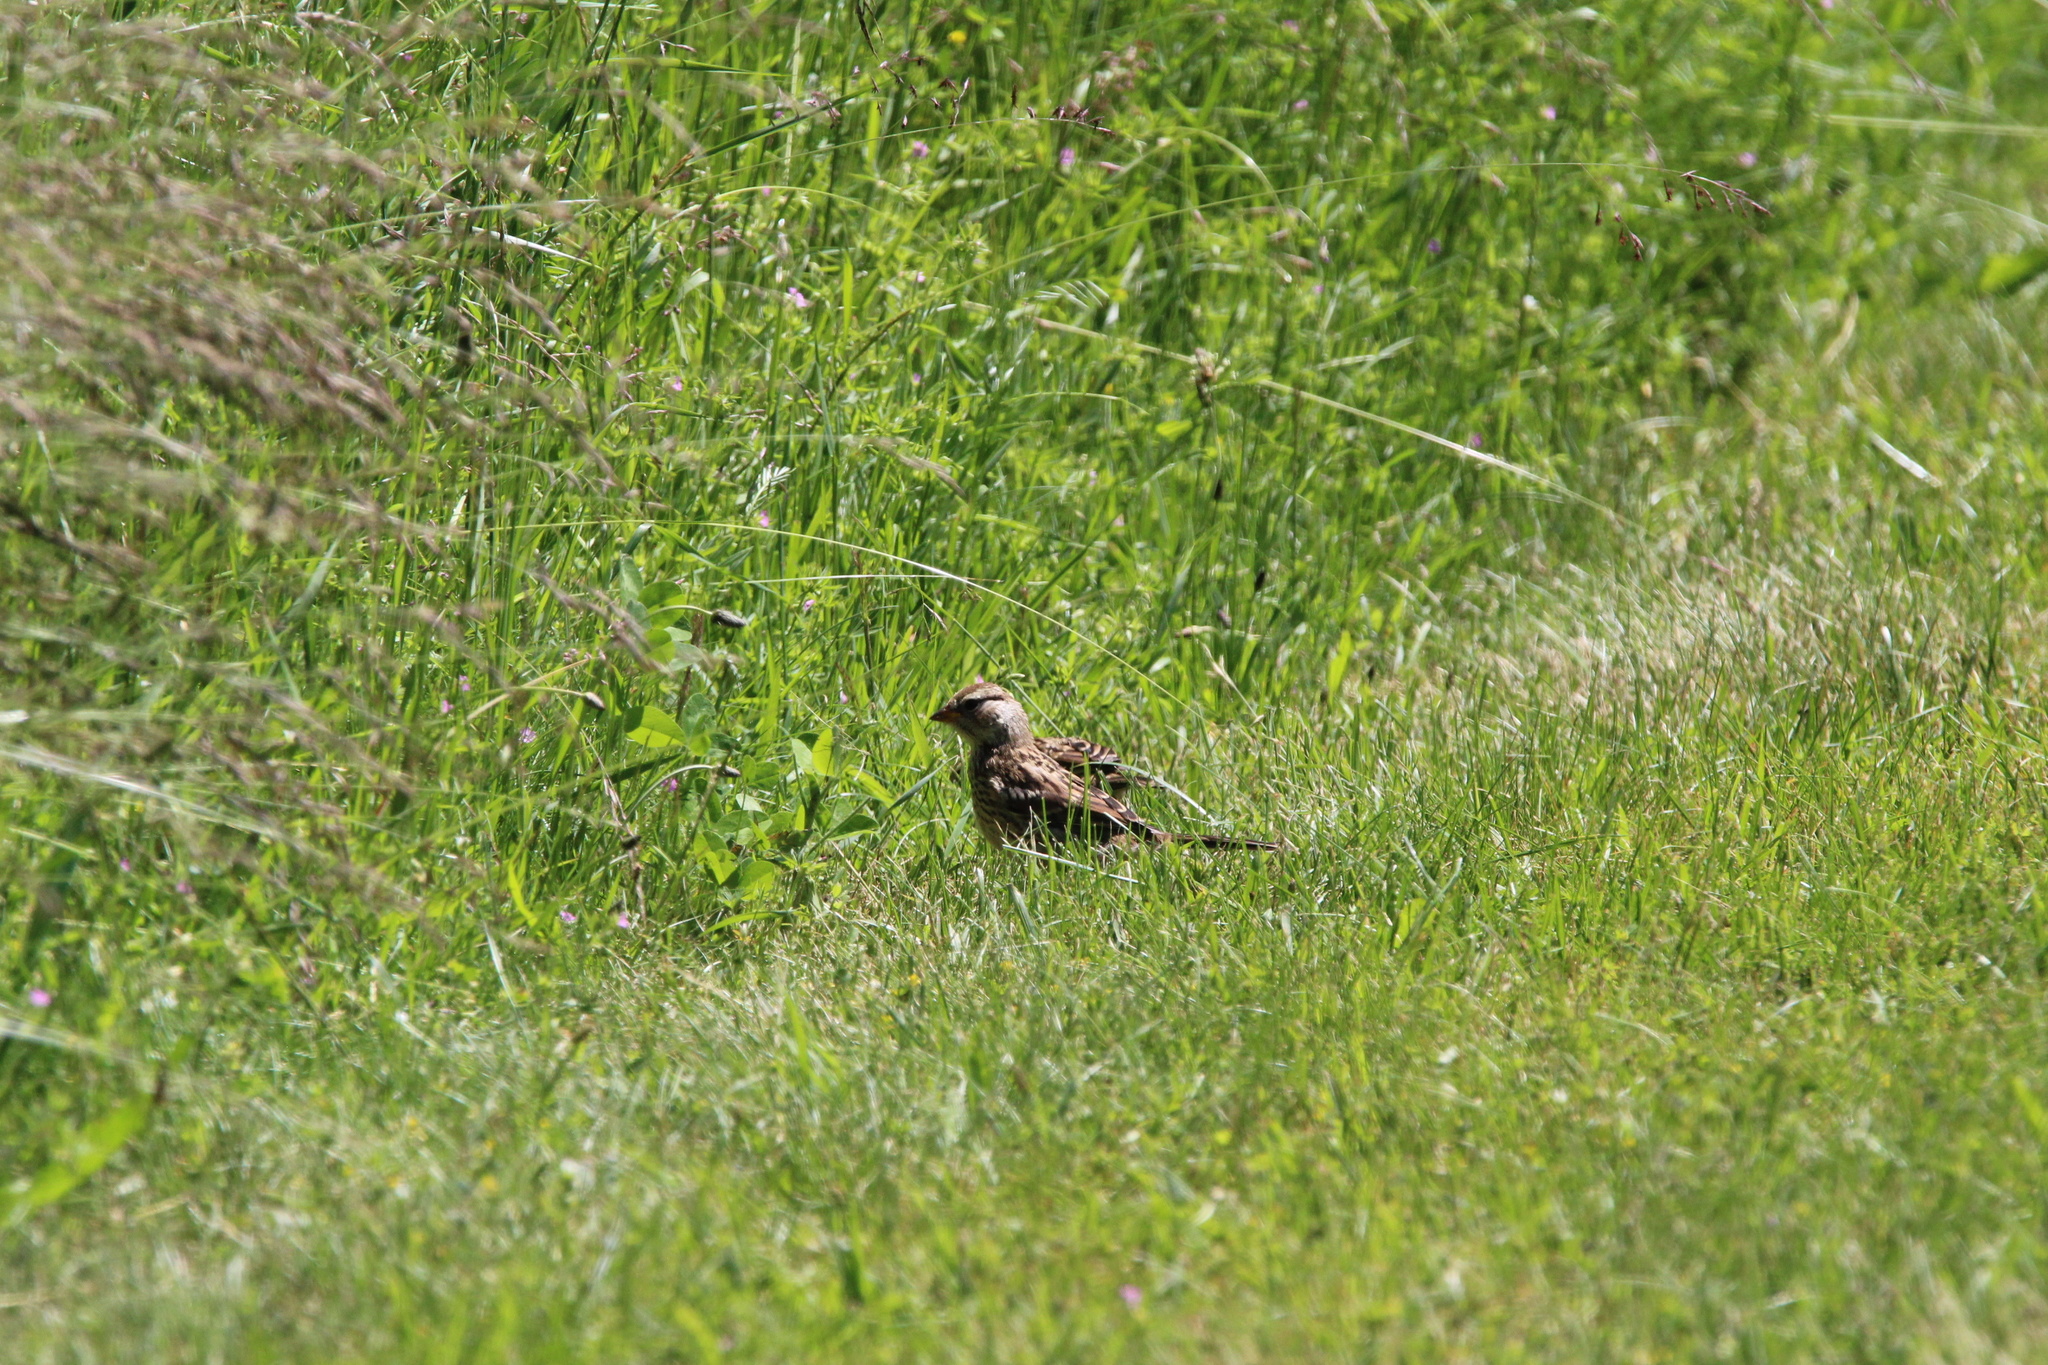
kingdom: Animalia
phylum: Chordata
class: Aves
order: Passeriformes
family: Passerellidae
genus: Zonotrichia
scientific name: Zonotrichia leucophrys
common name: White-crowned sparrow
